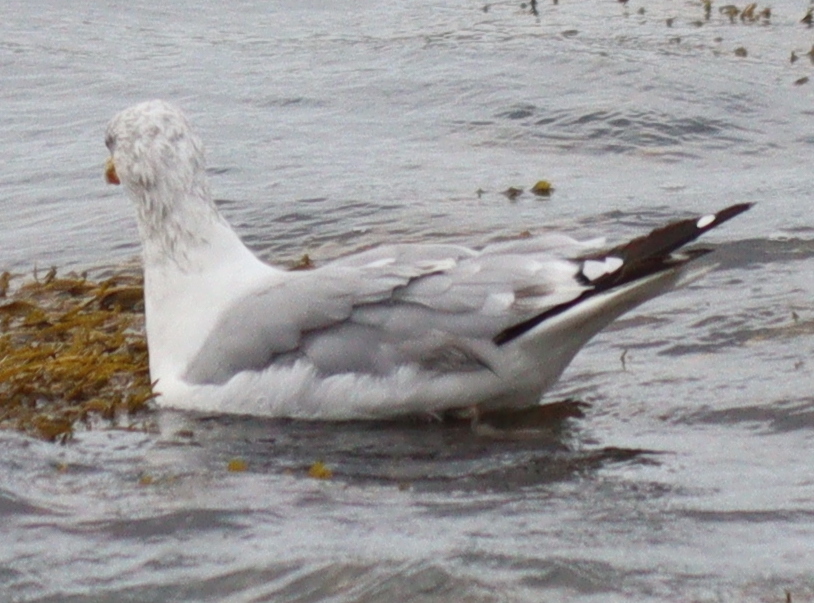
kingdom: Animalia
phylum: Chordata
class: Aves
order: Charadriiformes
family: Laridae
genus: Larus
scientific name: Larus argentatus
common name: Herring gull
